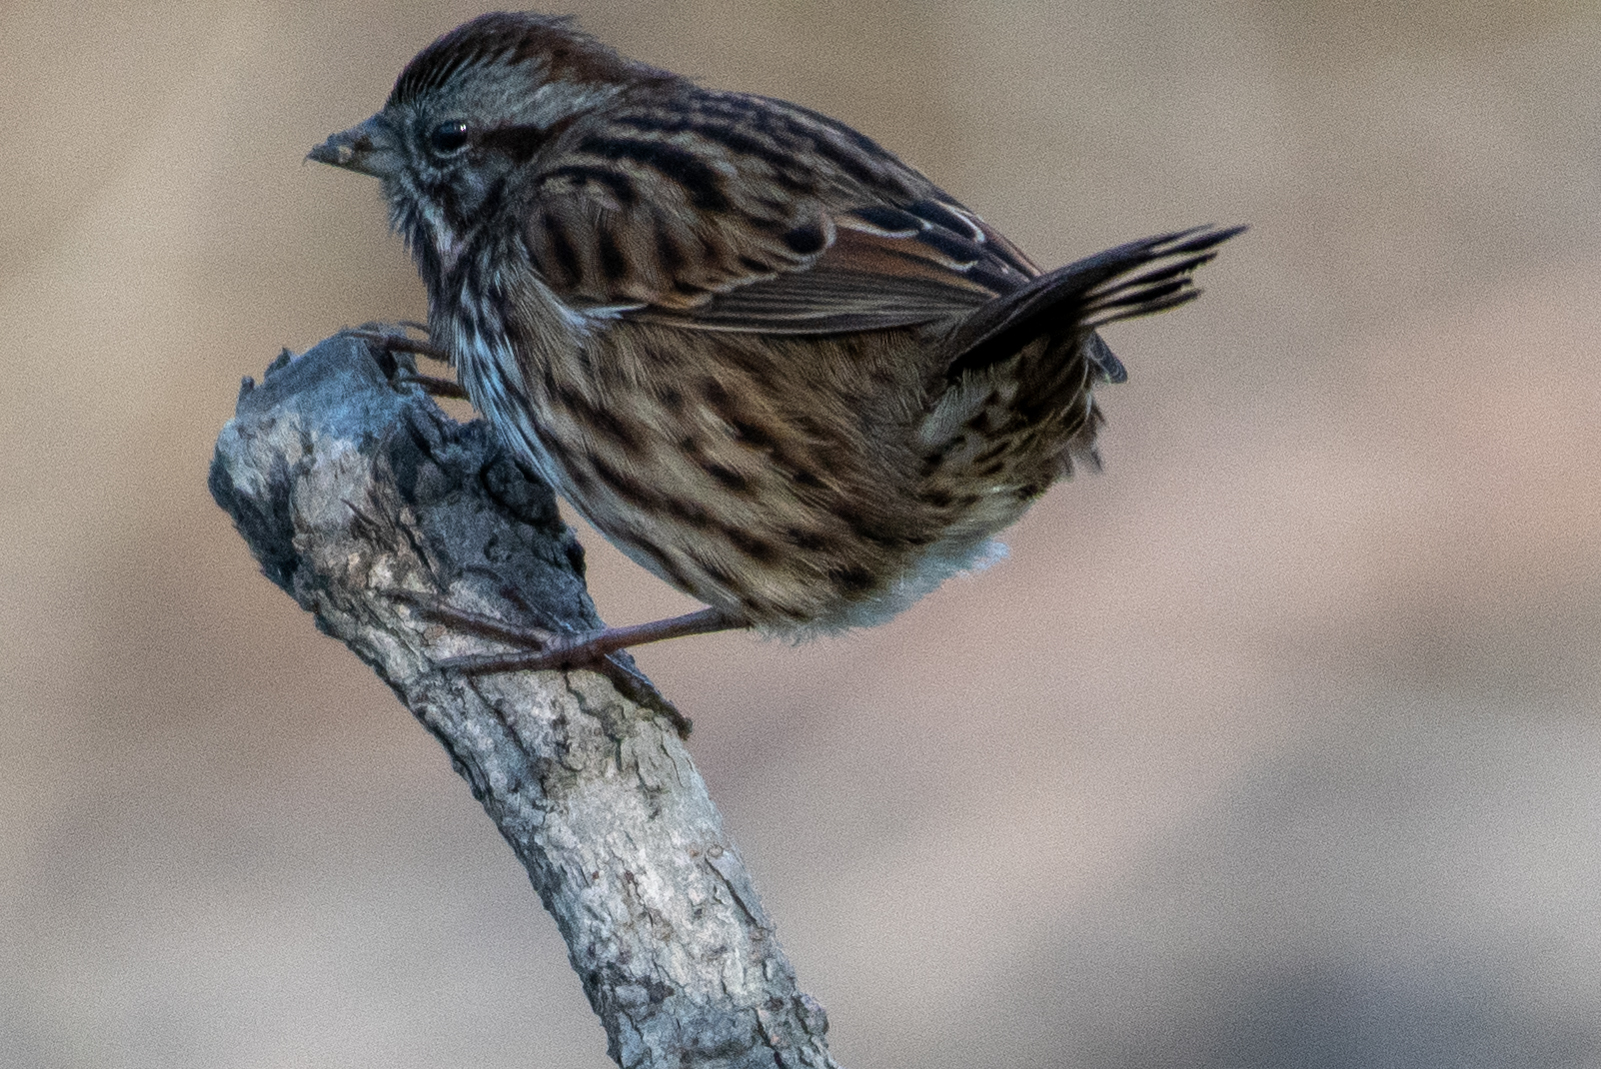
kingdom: Animalia
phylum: Chordata
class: Aves
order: Passeriformes
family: Passerellidae
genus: Melospiza
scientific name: Melospiza melodia
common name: Song sparrow
